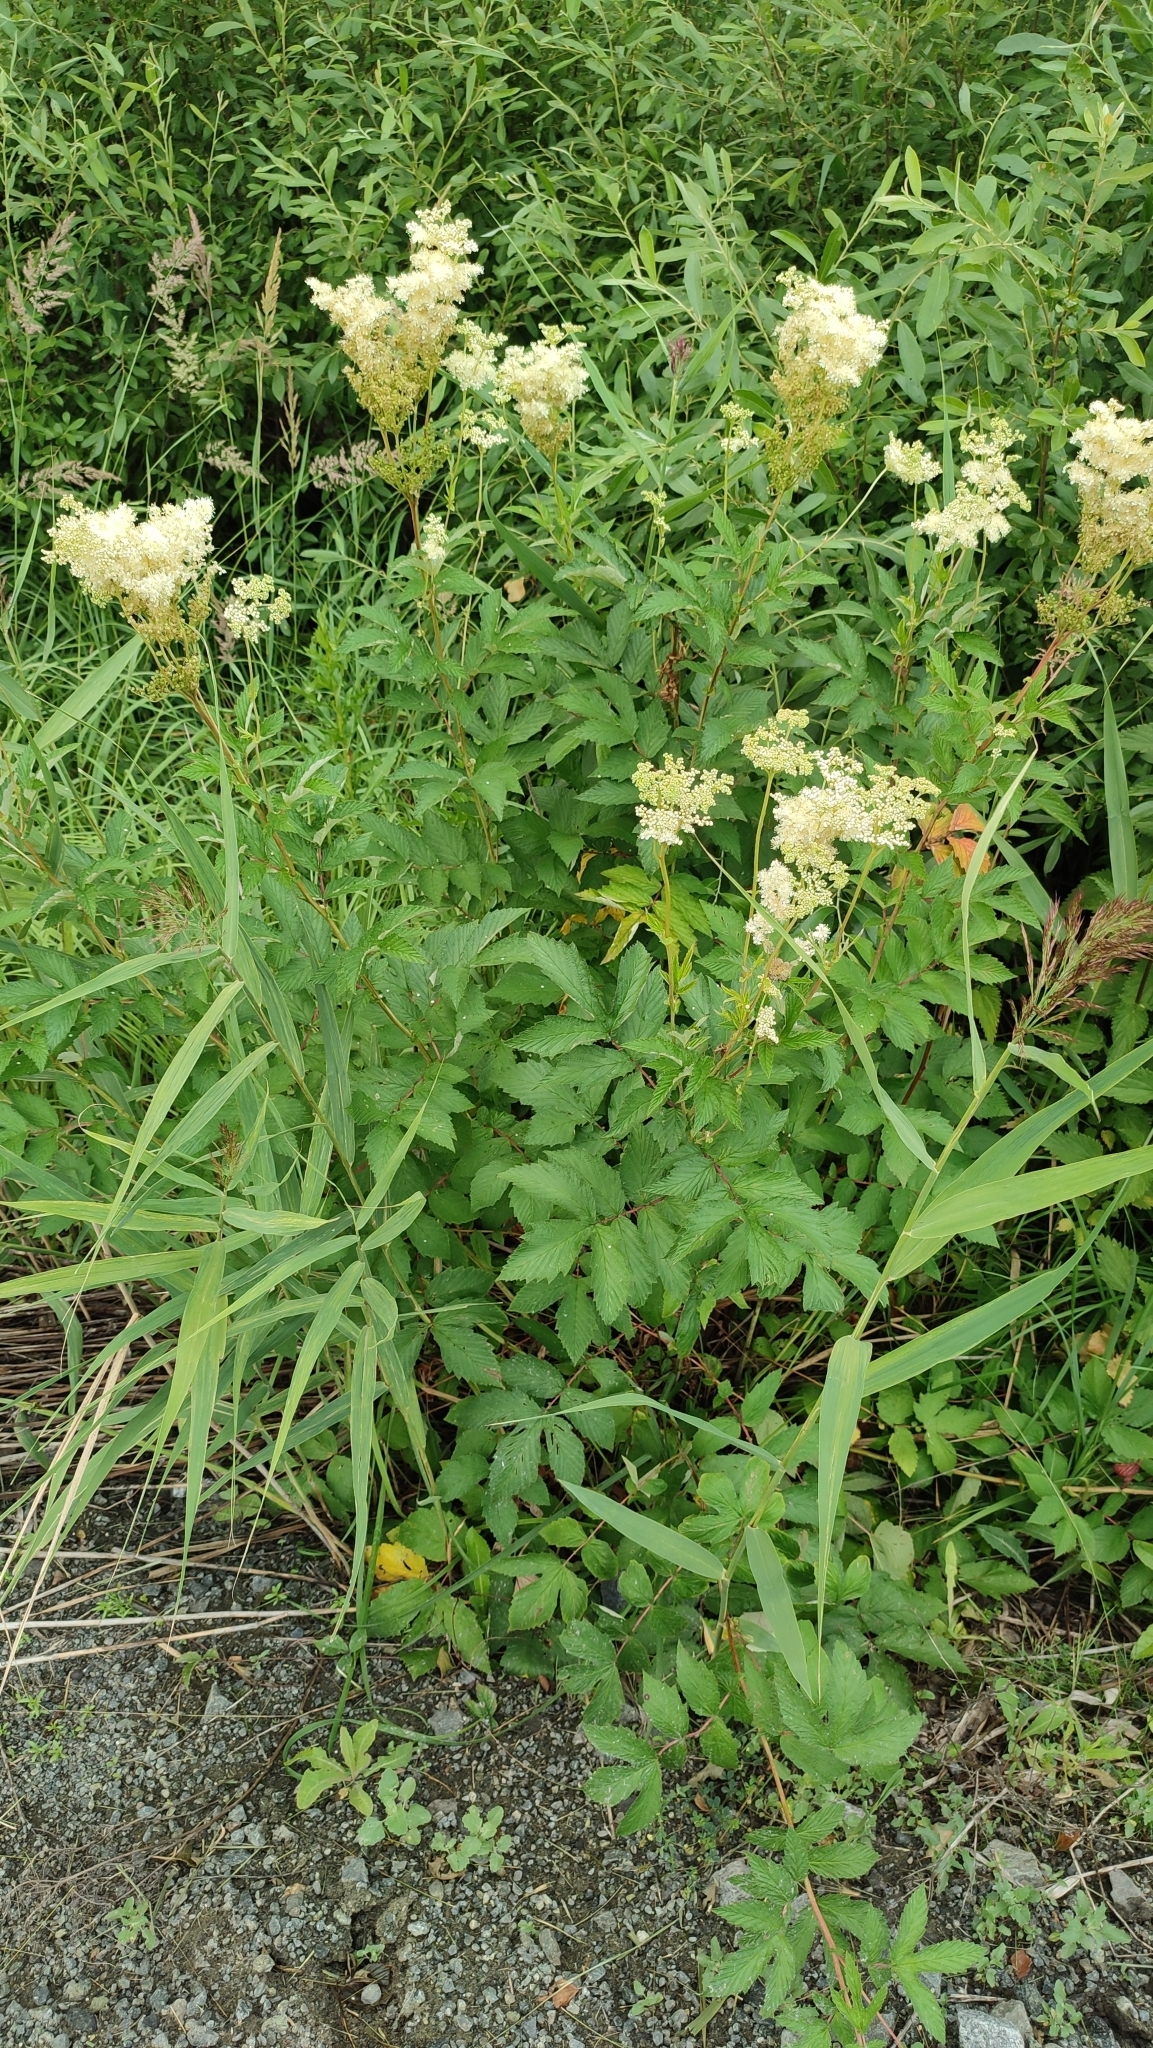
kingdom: Plantae
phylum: Tracheophyta
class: Magnoliopsida
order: Rosales
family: Rosaceae
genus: Filipendula
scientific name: Filipendula ulmaria
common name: Meadowsweet
